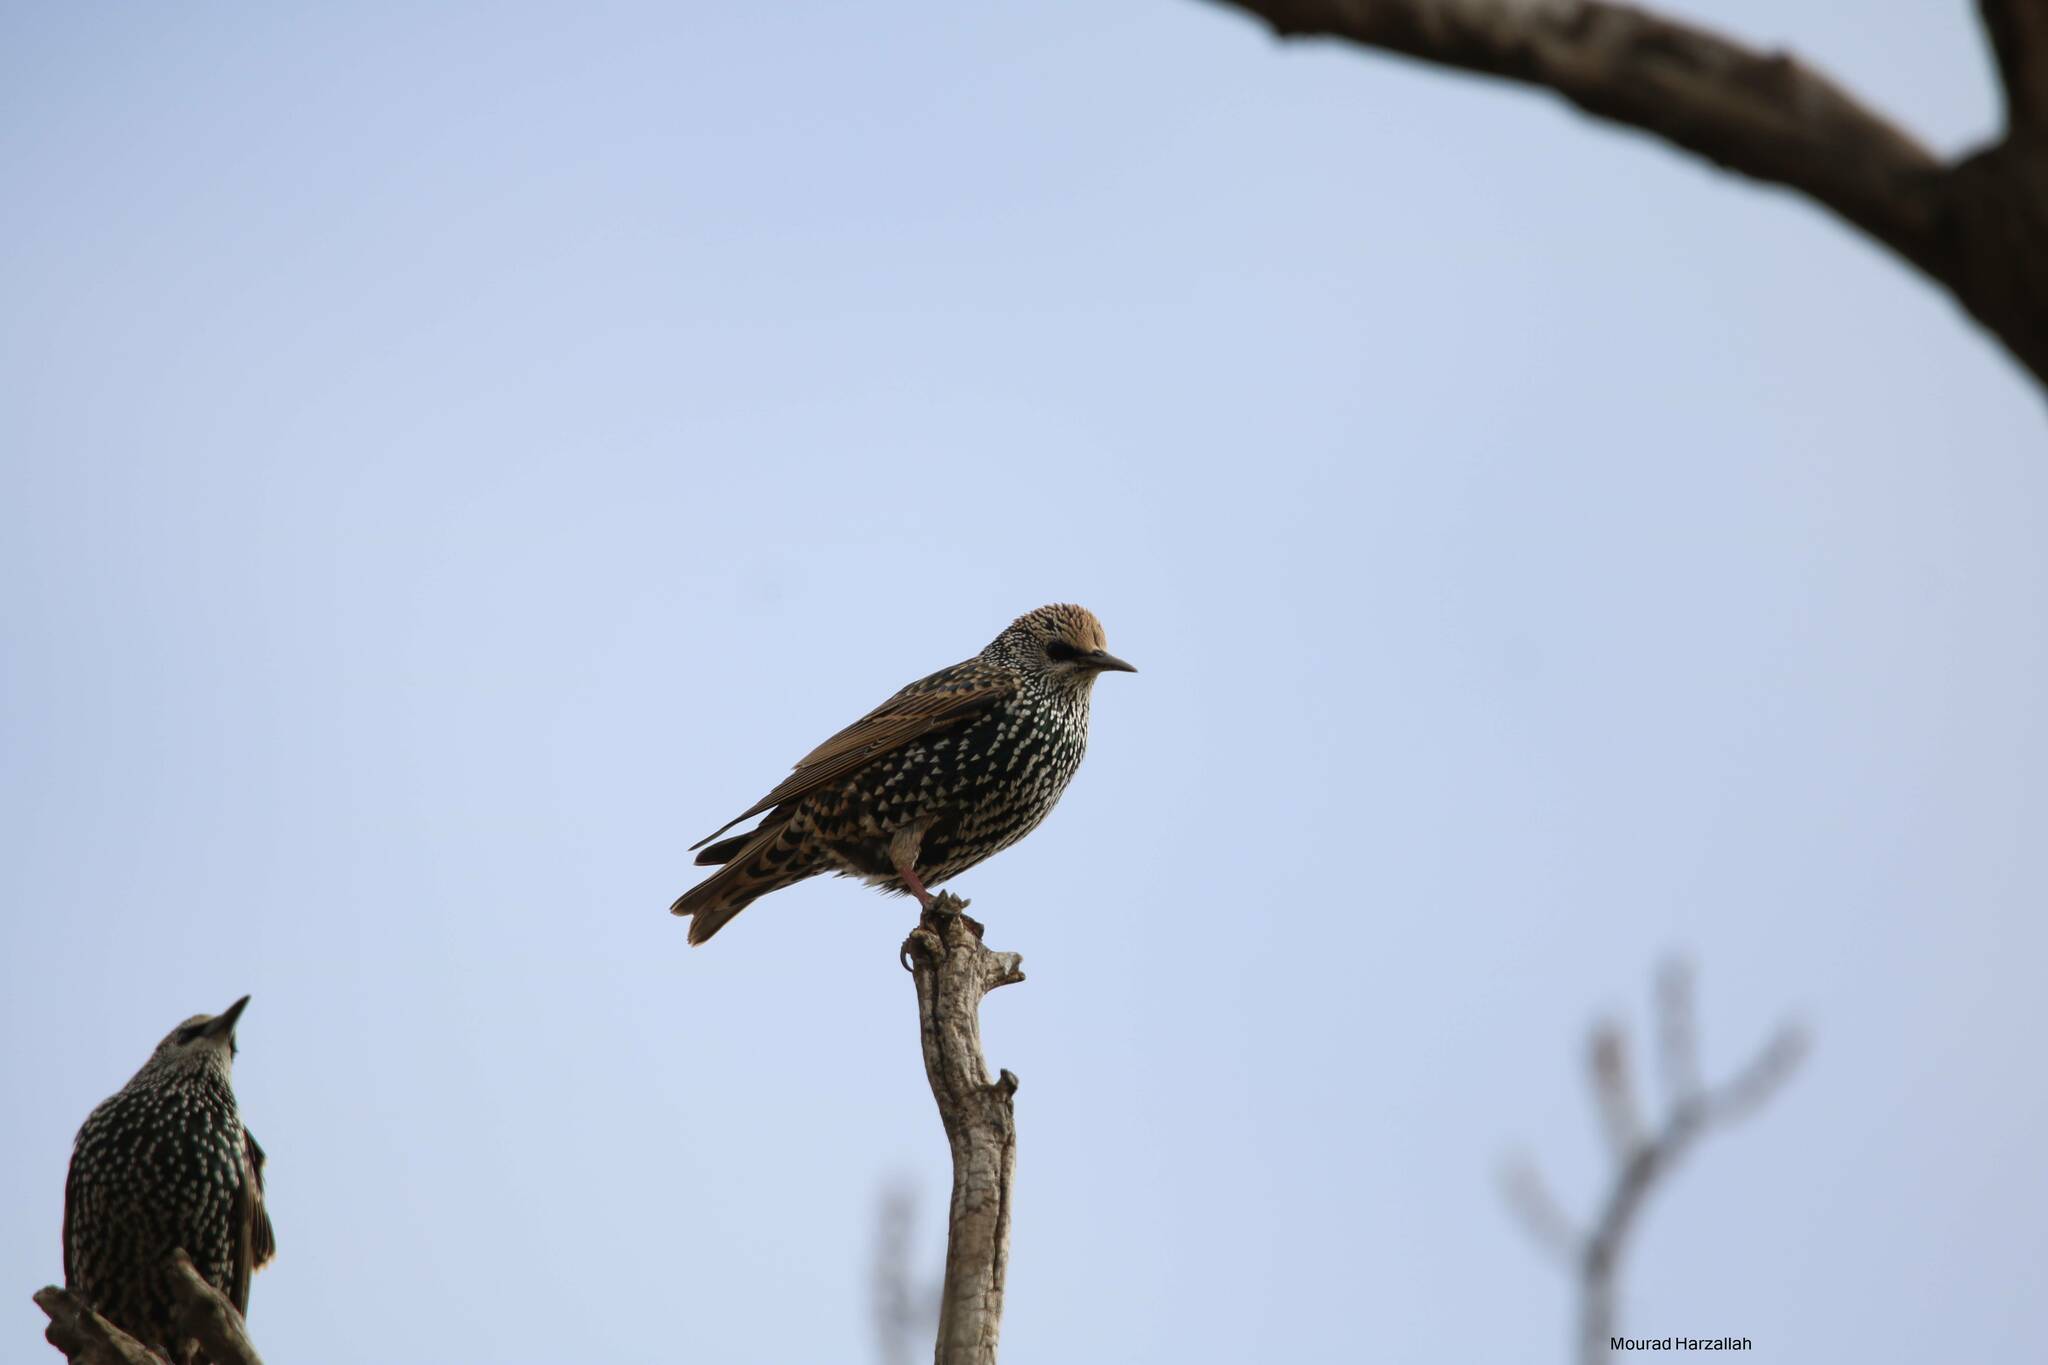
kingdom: Animalia
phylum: Chordata
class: Aves
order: Passeriformes
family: Sturnidae
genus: Sturnus
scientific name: Sturnus vulgaris
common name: Common starling
